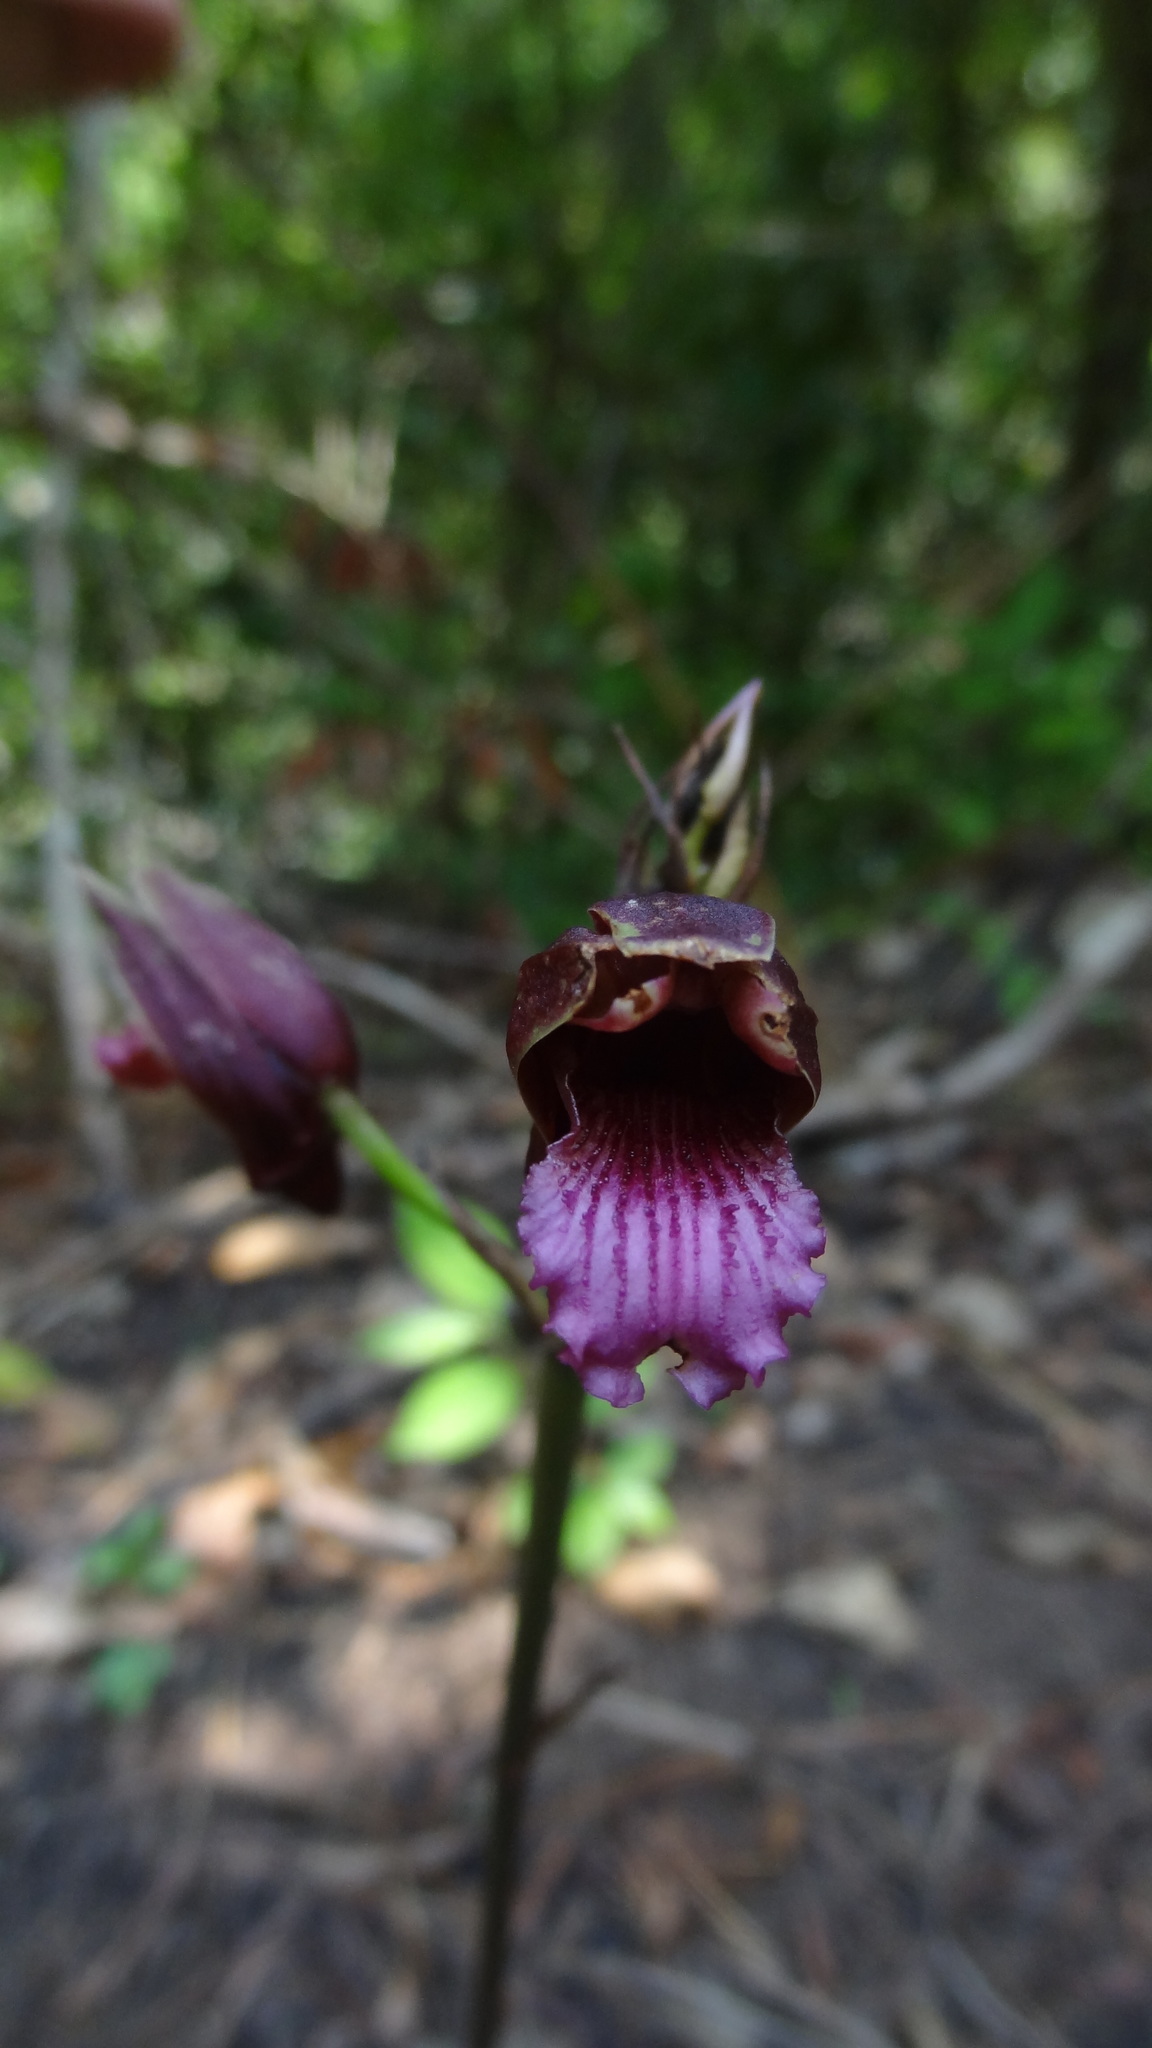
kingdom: Plantae
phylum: Tracheophyta
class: Liliopsida
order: Asparagales
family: Orchidaceae
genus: Eulophia
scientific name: Eulophia nuda
